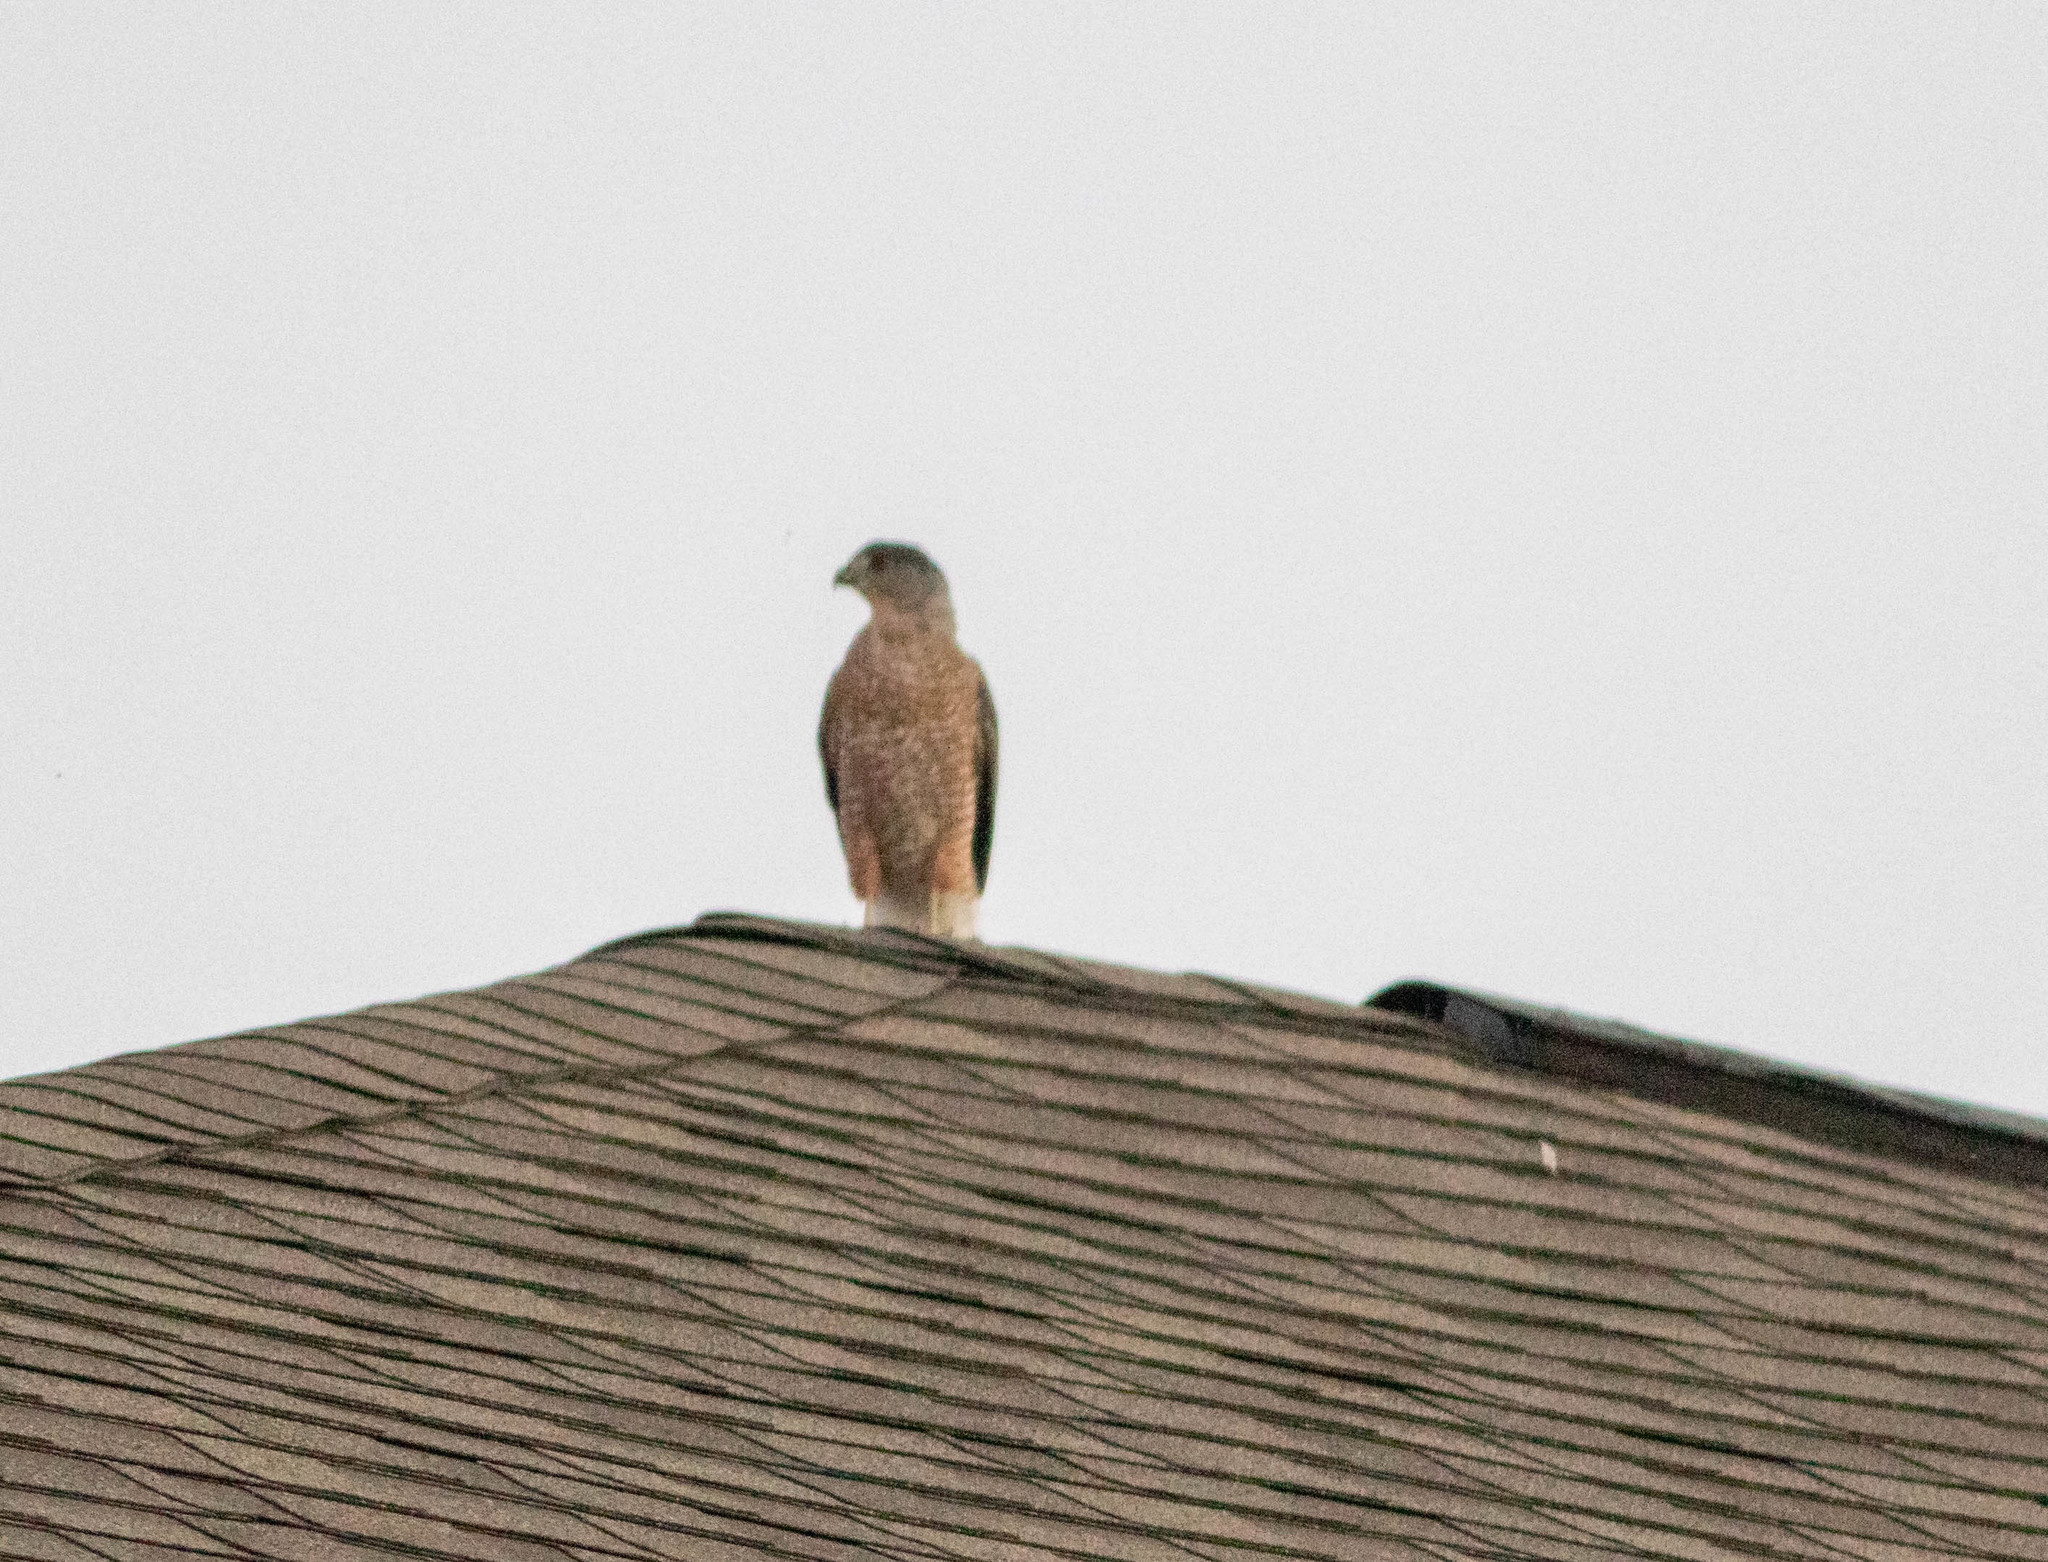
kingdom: Animalia
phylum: Chordata
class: Aves
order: Accipitriformes
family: Accipitridae
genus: Accipiter
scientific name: Accipiter cooperii
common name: Cooper's hawk
